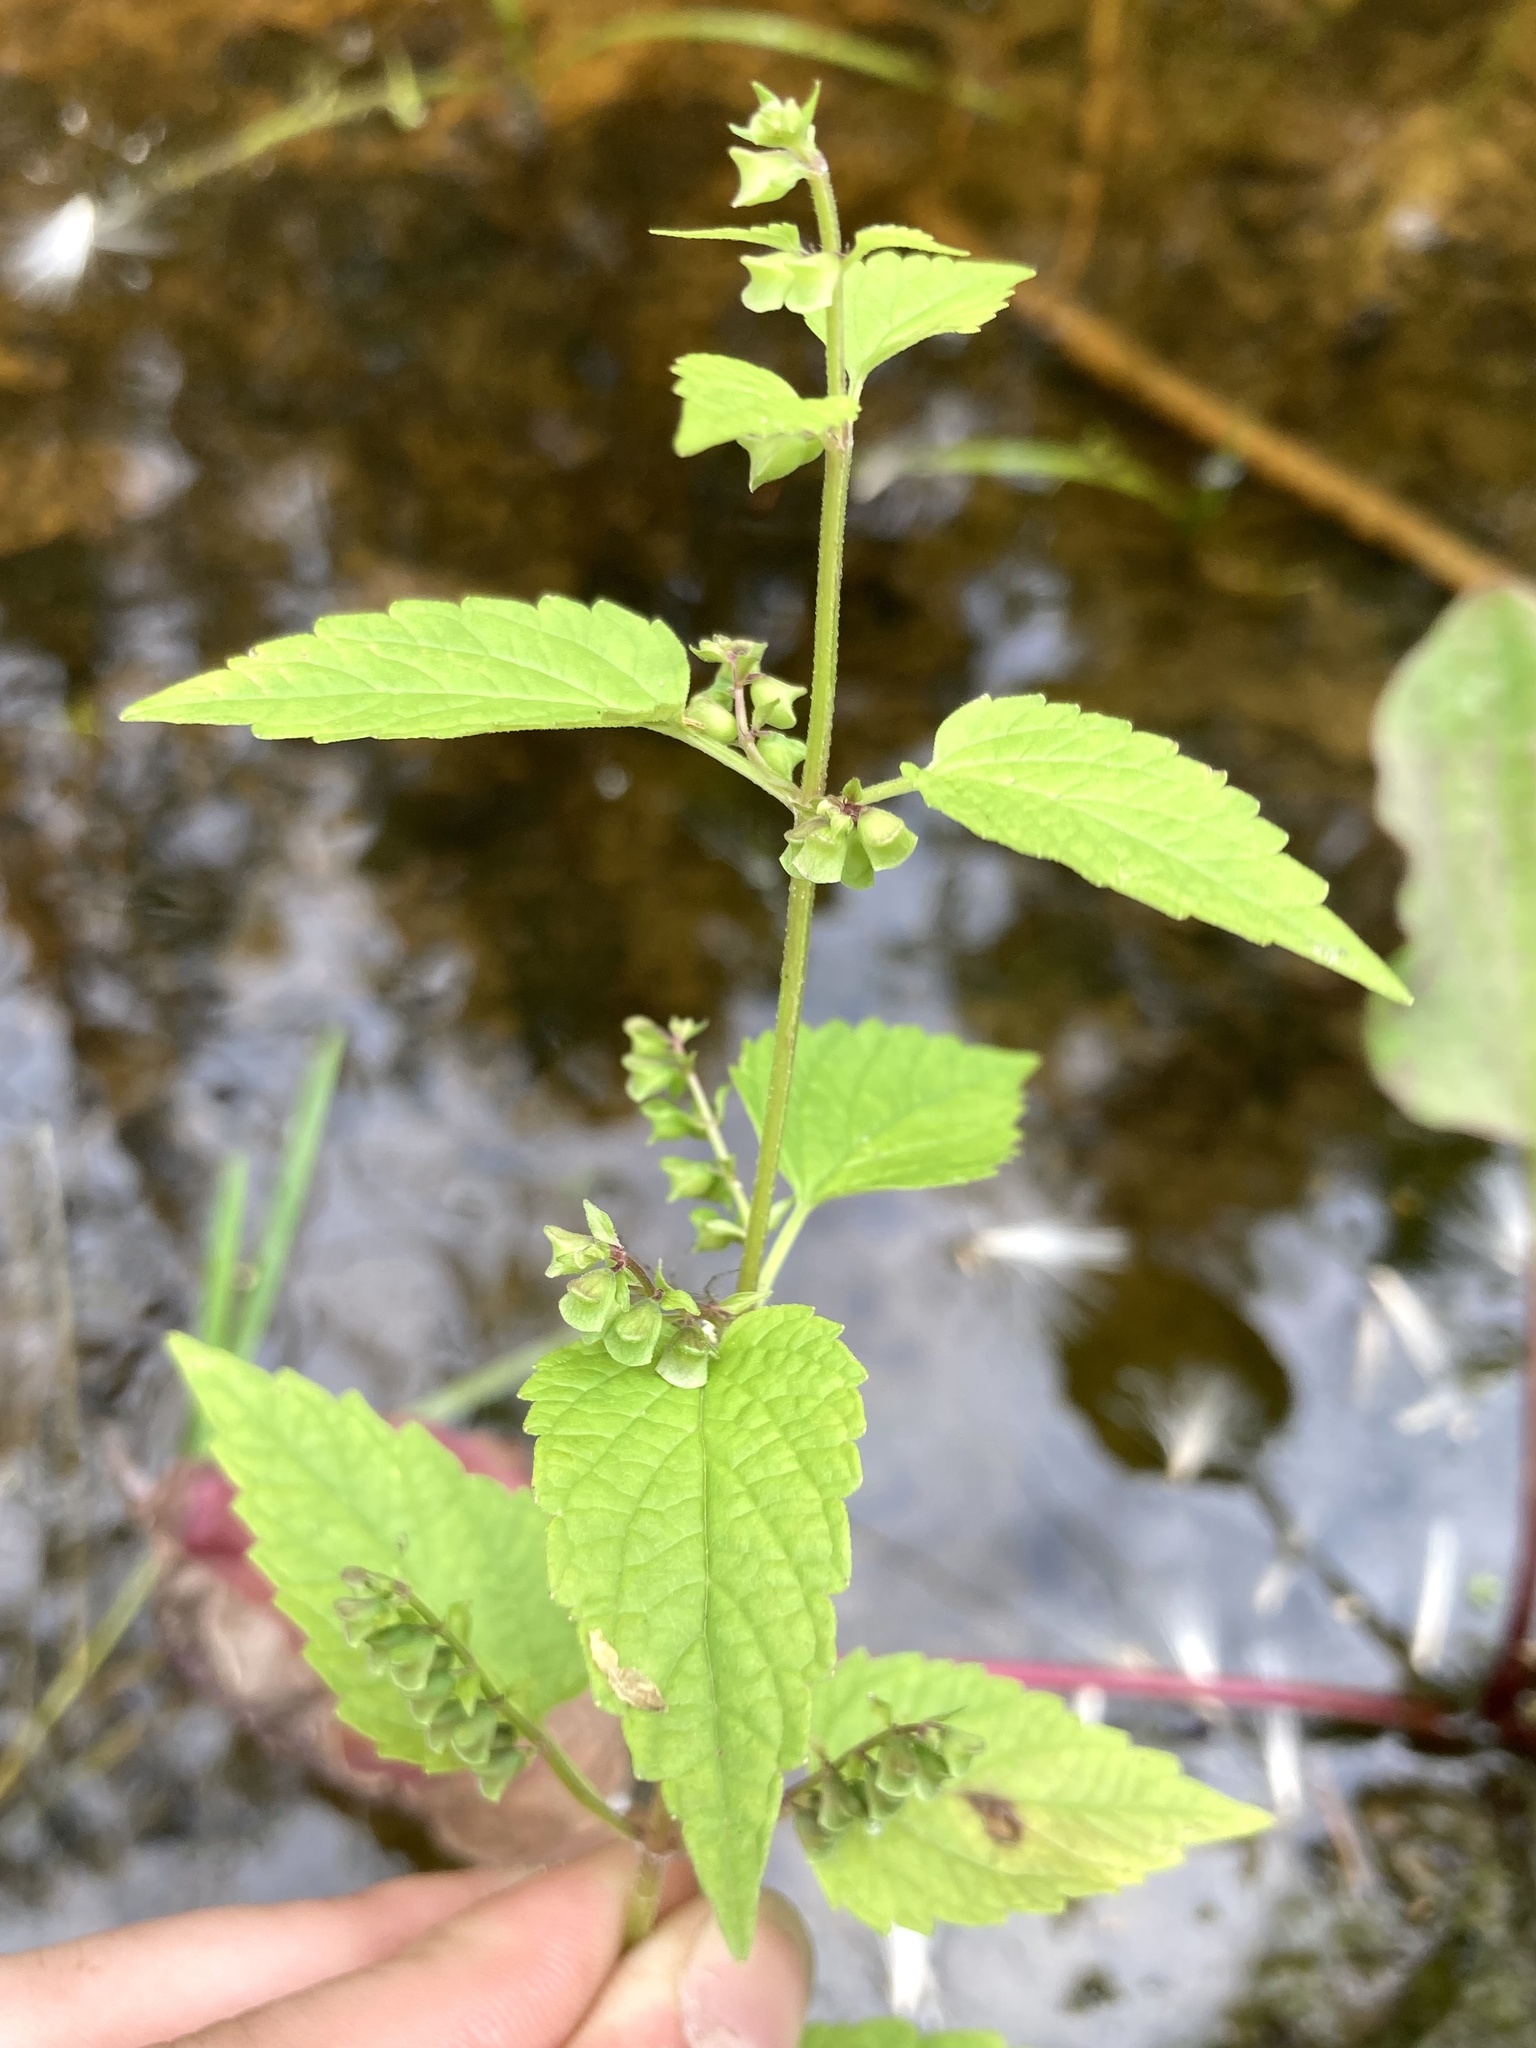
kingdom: Plantae
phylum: Tracheophyta
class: Magnoliopsida
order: Lamiales
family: Lamiaceae
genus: Scutellaria
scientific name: Scutellaria lateriflora
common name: Blue skullcap
